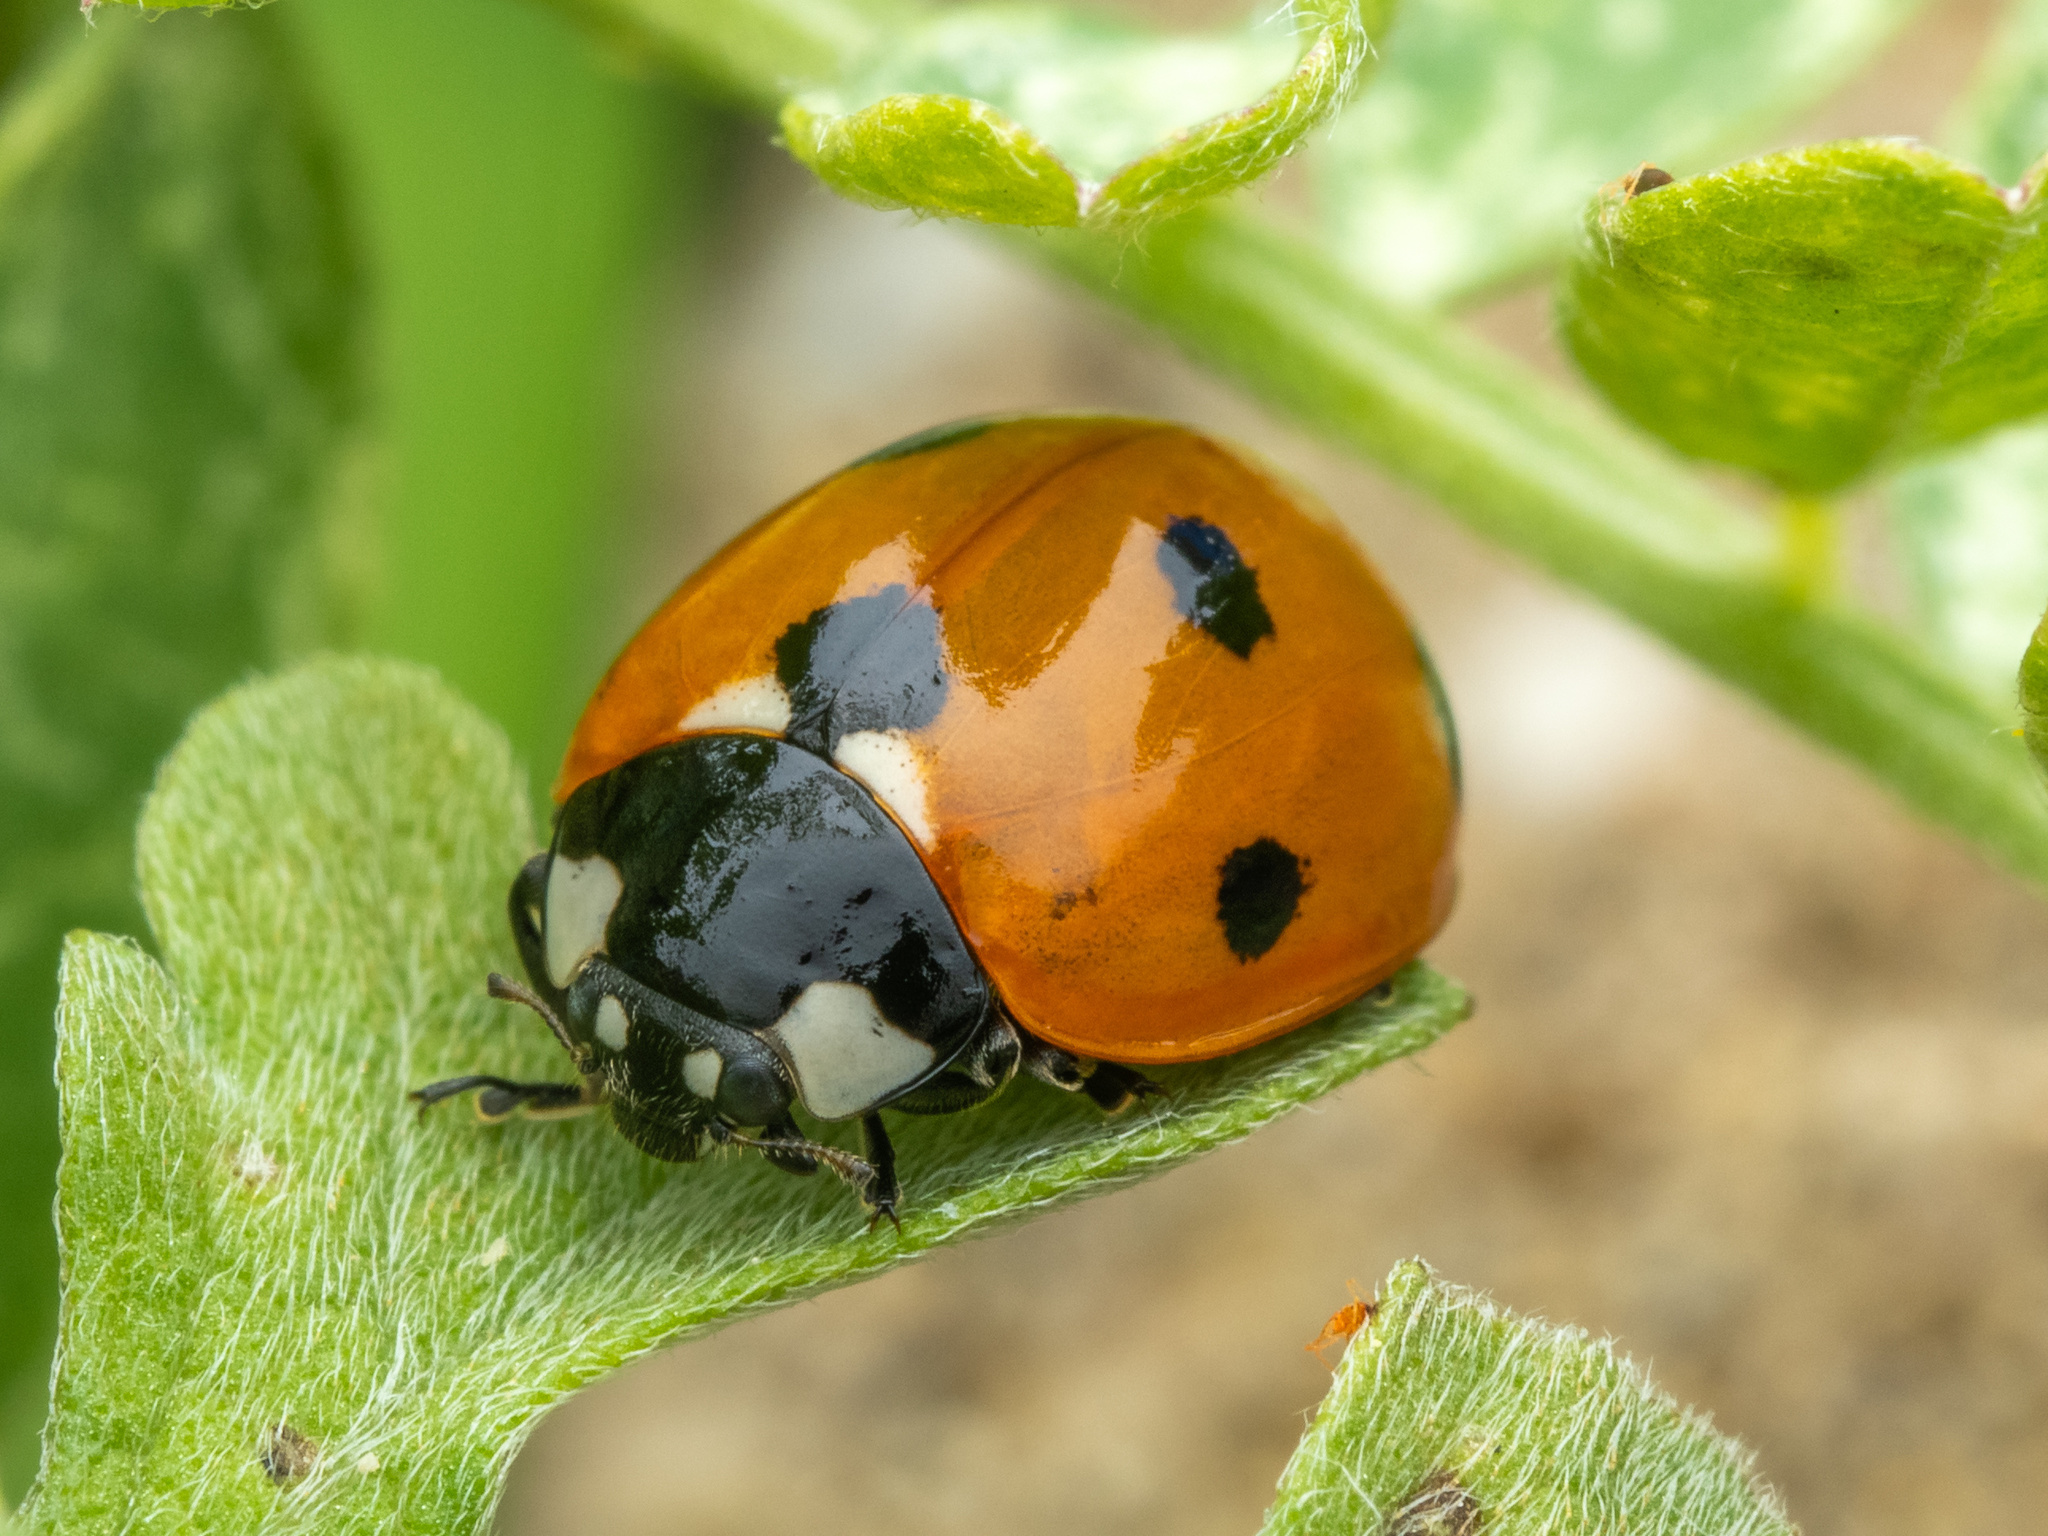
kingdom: Animalia
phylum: Arthropoda
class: Insecta
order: Coleoptera
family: Coccinellidae
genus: Coccinella
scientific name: Coccinella septempunctata
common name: Sevenspotted lady beetle
